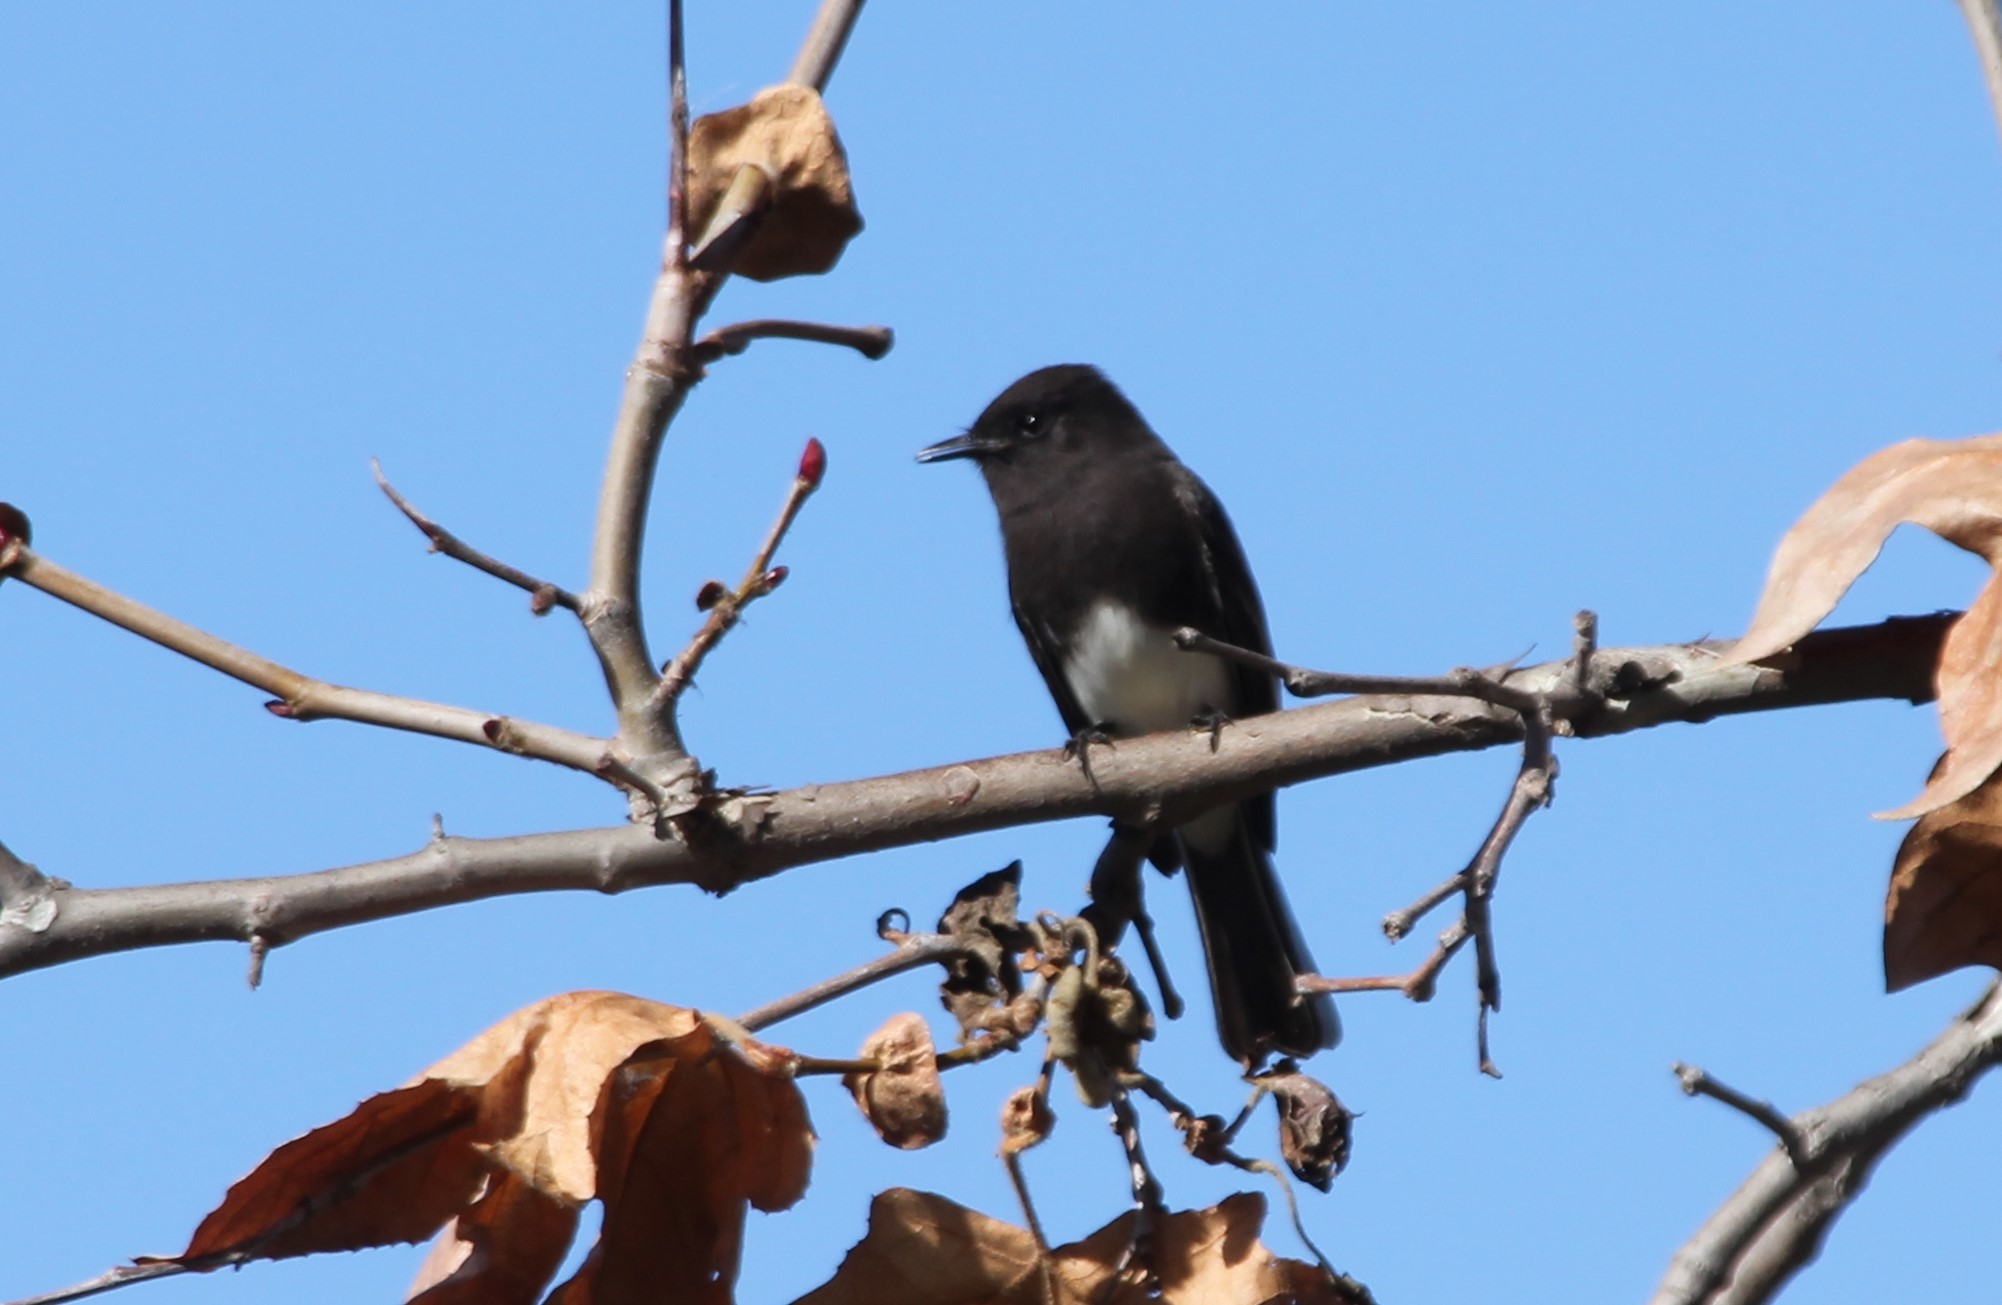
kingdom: Animalia
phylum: Chordata
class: Aves
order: Passeriformes
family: Tyrannidae
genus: Sayornis
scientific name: Sayornis nigricans
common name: Black phoebe
